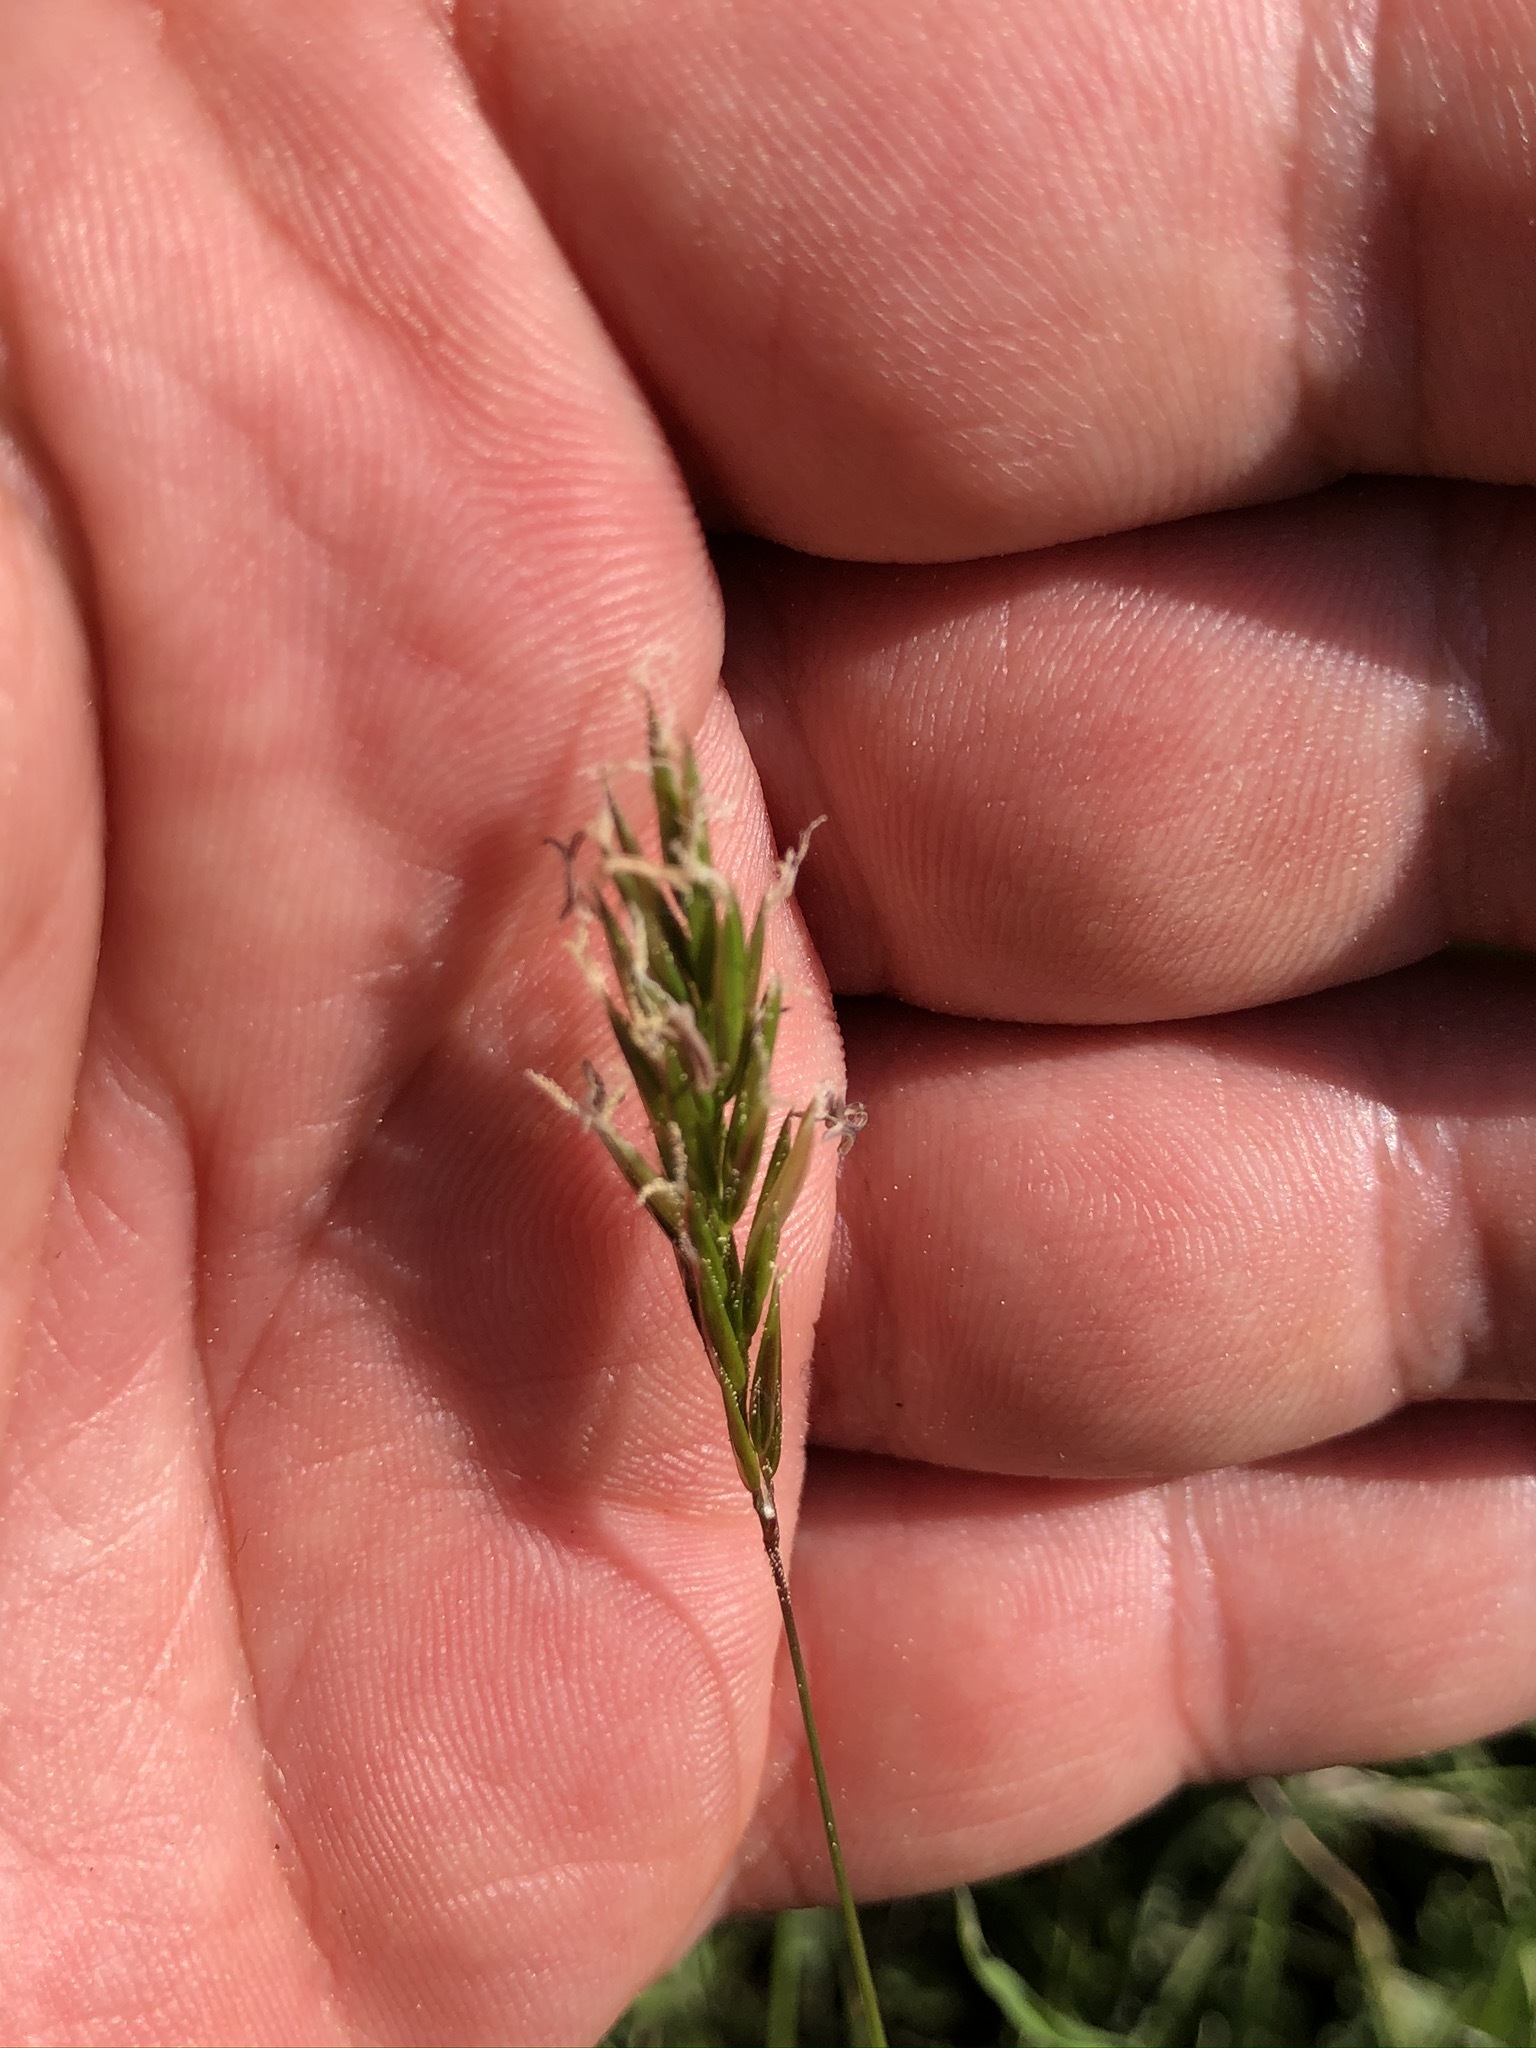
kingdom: Plantae
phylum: Tracheophyta
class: Liliopsida
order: Poales
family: Poaceae
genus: Anthoxanthum
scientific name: Anthoxanthum odoratum
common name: Sweet vernalgrass
